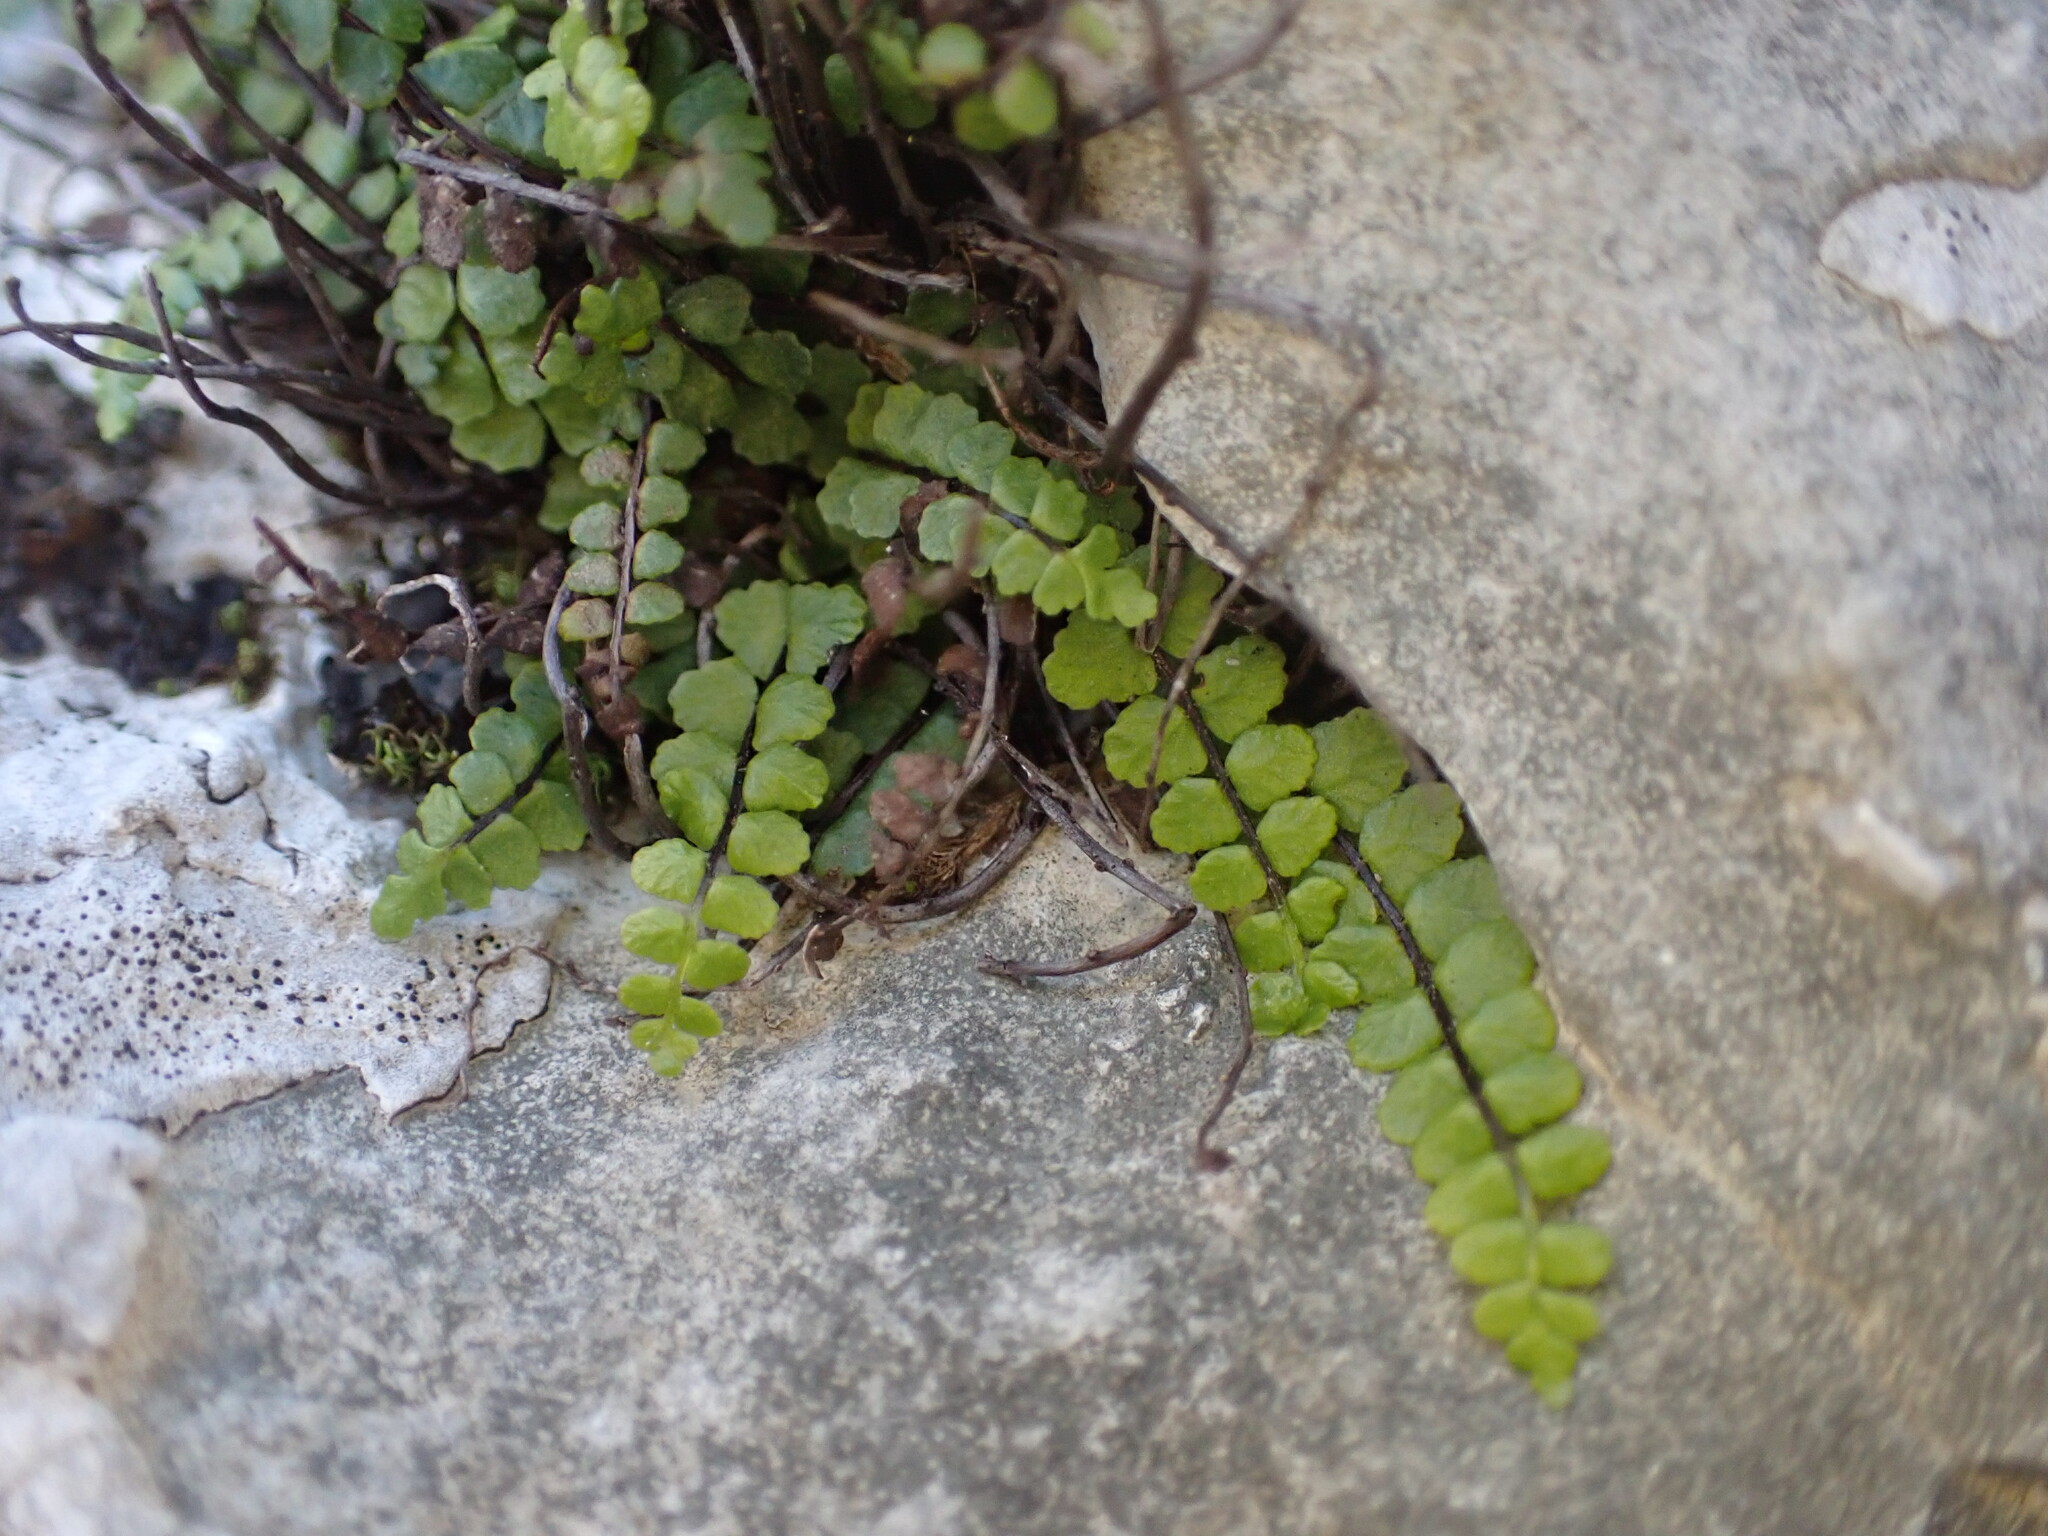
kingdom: Plantae
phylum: Tracheophyta
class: Polypodiopsida
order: Polypodiales
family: Aspleniaceae
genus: Asplenium
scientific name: Asplenium trichomanes
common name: Maidenhair spleenwort
